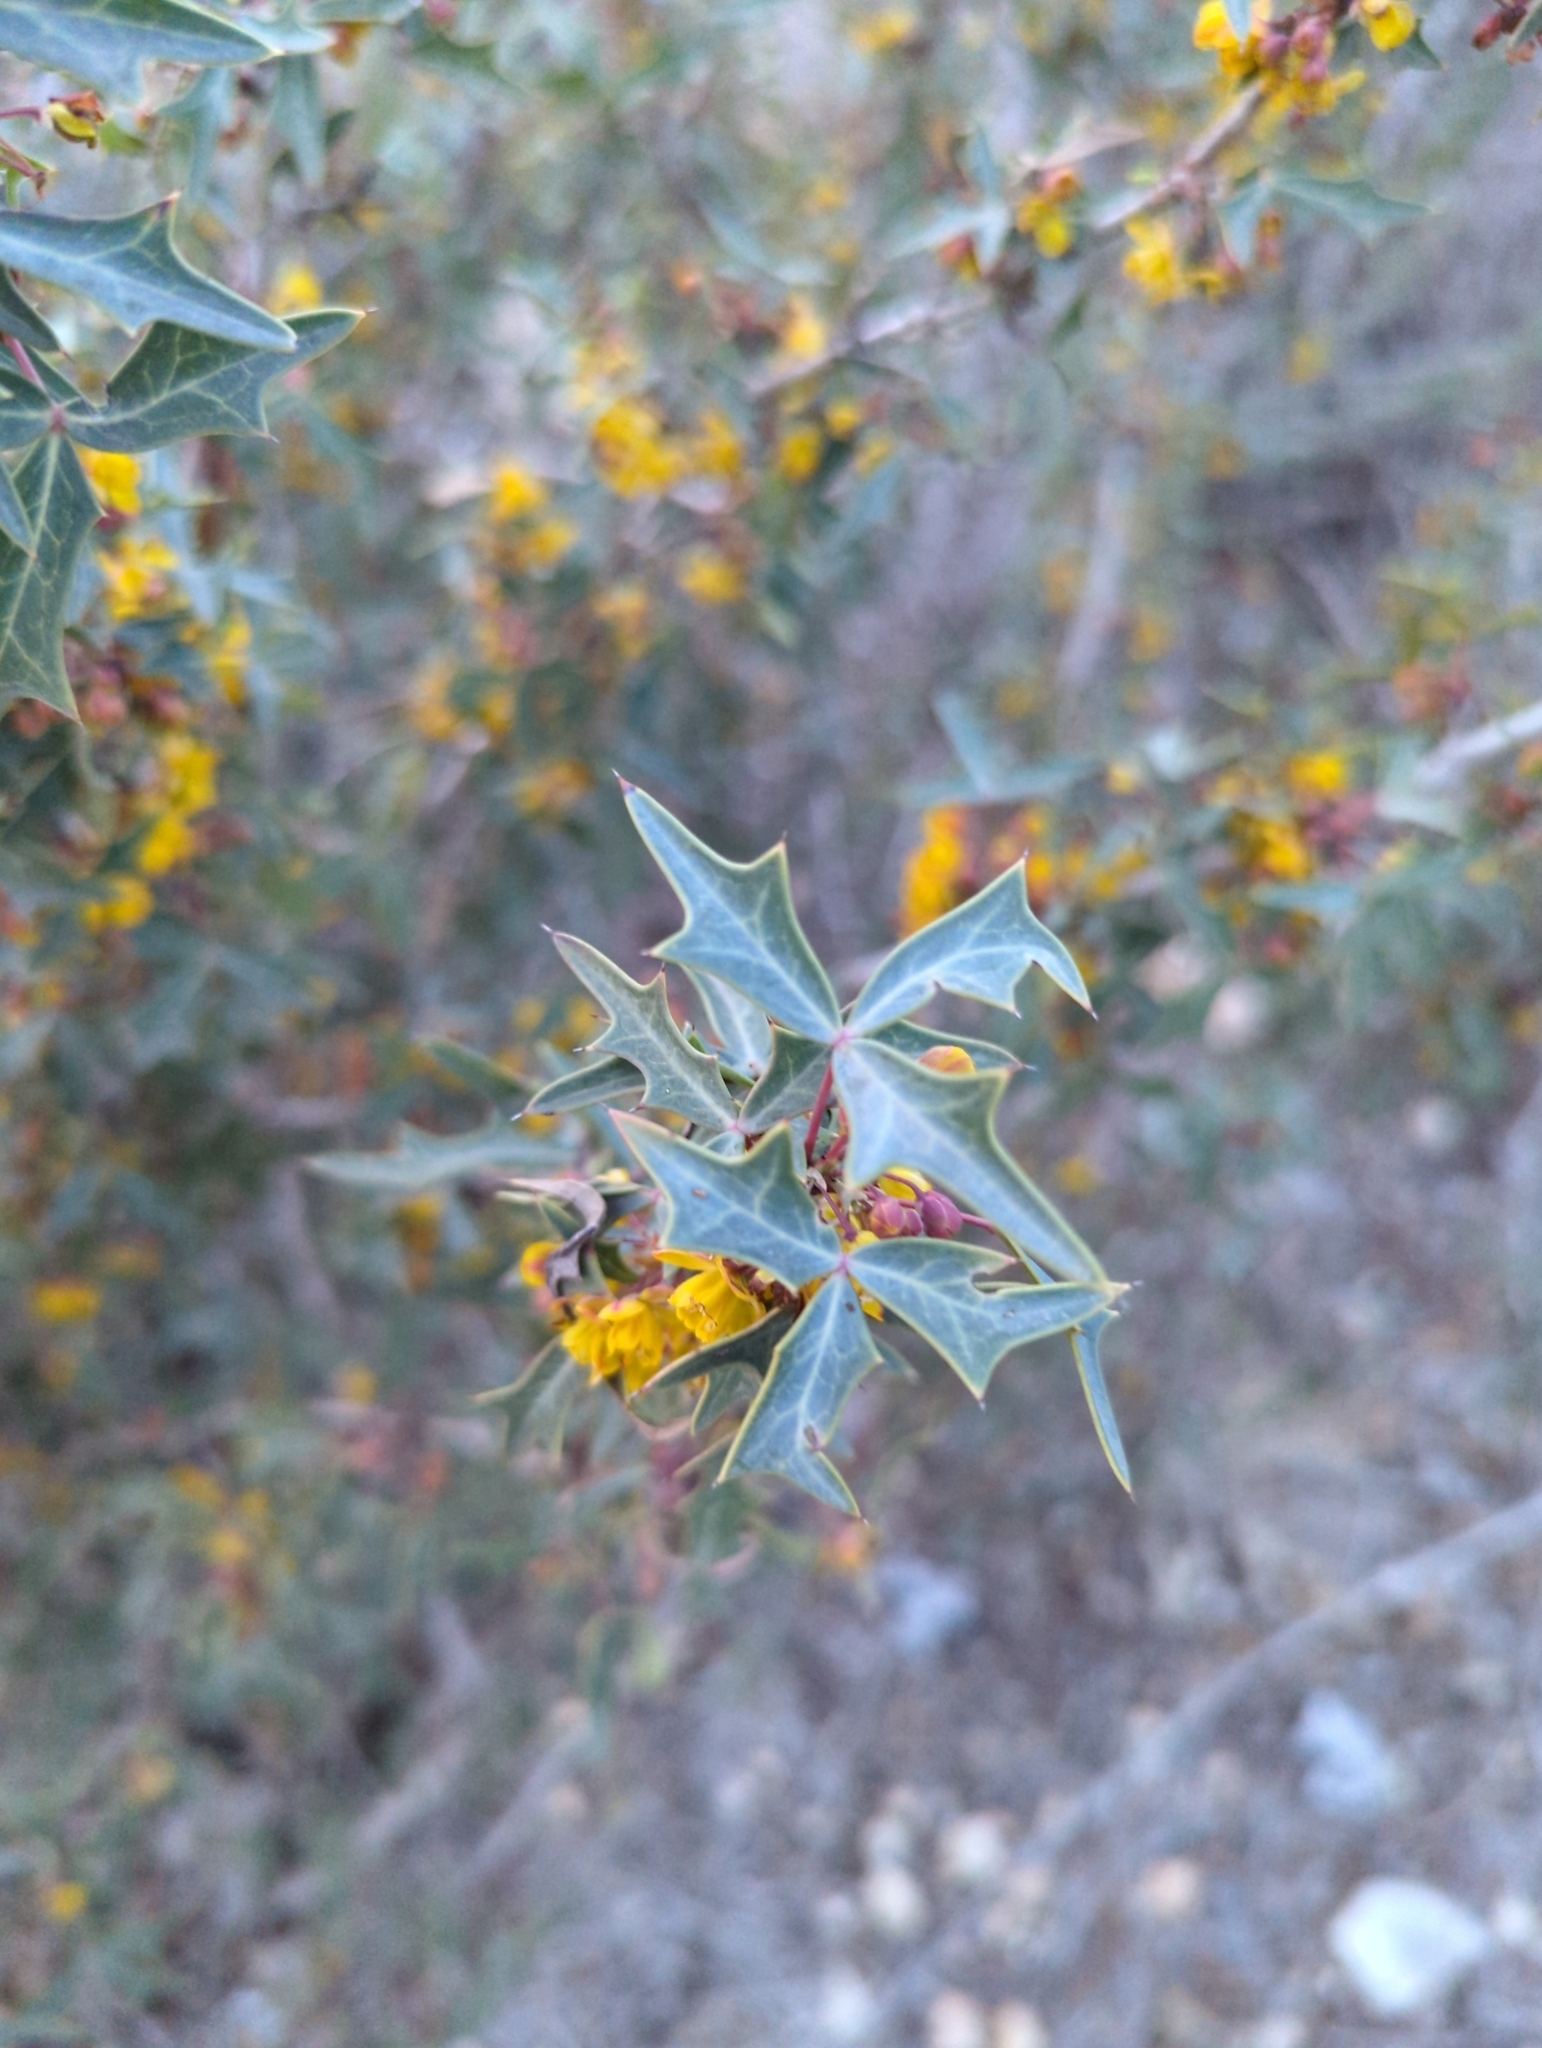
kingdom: Plantae
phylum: Tracheophyta
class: Magnoliopsida
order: Ranunculales
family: Berberidaceae
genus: Alloberberis
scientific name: Alloberberis trifoliolata
